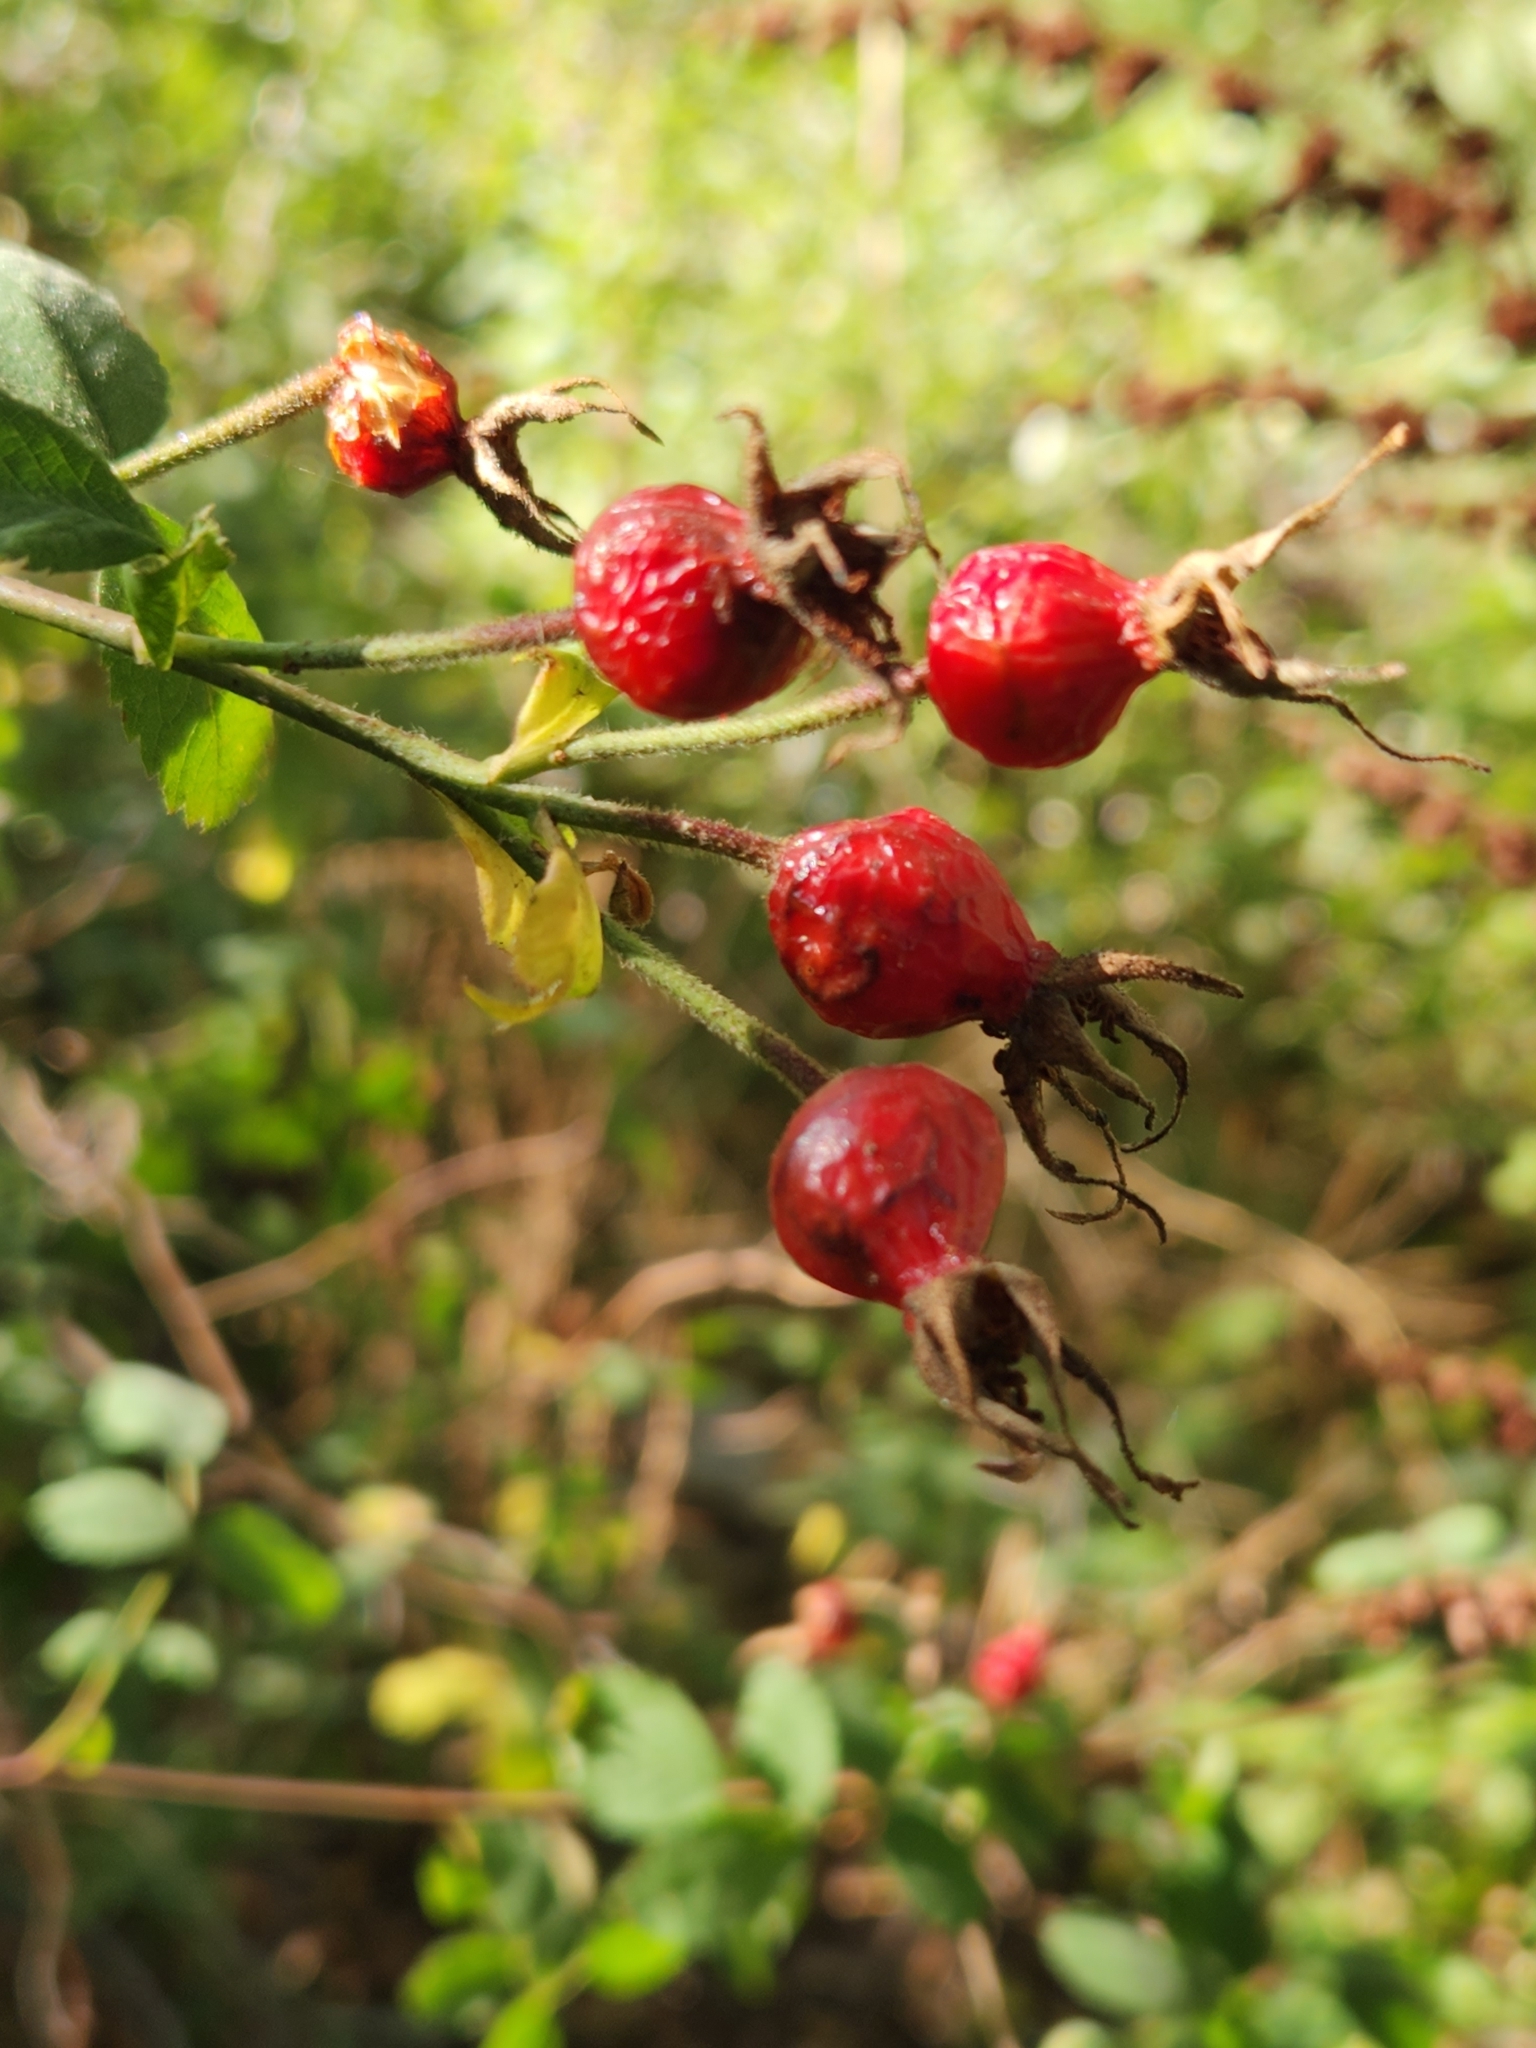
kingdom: Plantae
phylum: Tracheophyta
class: Magnoliopsida
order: Rosales
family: Rosaceae
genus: Rosa
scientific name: Rosa californica
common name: California rose
